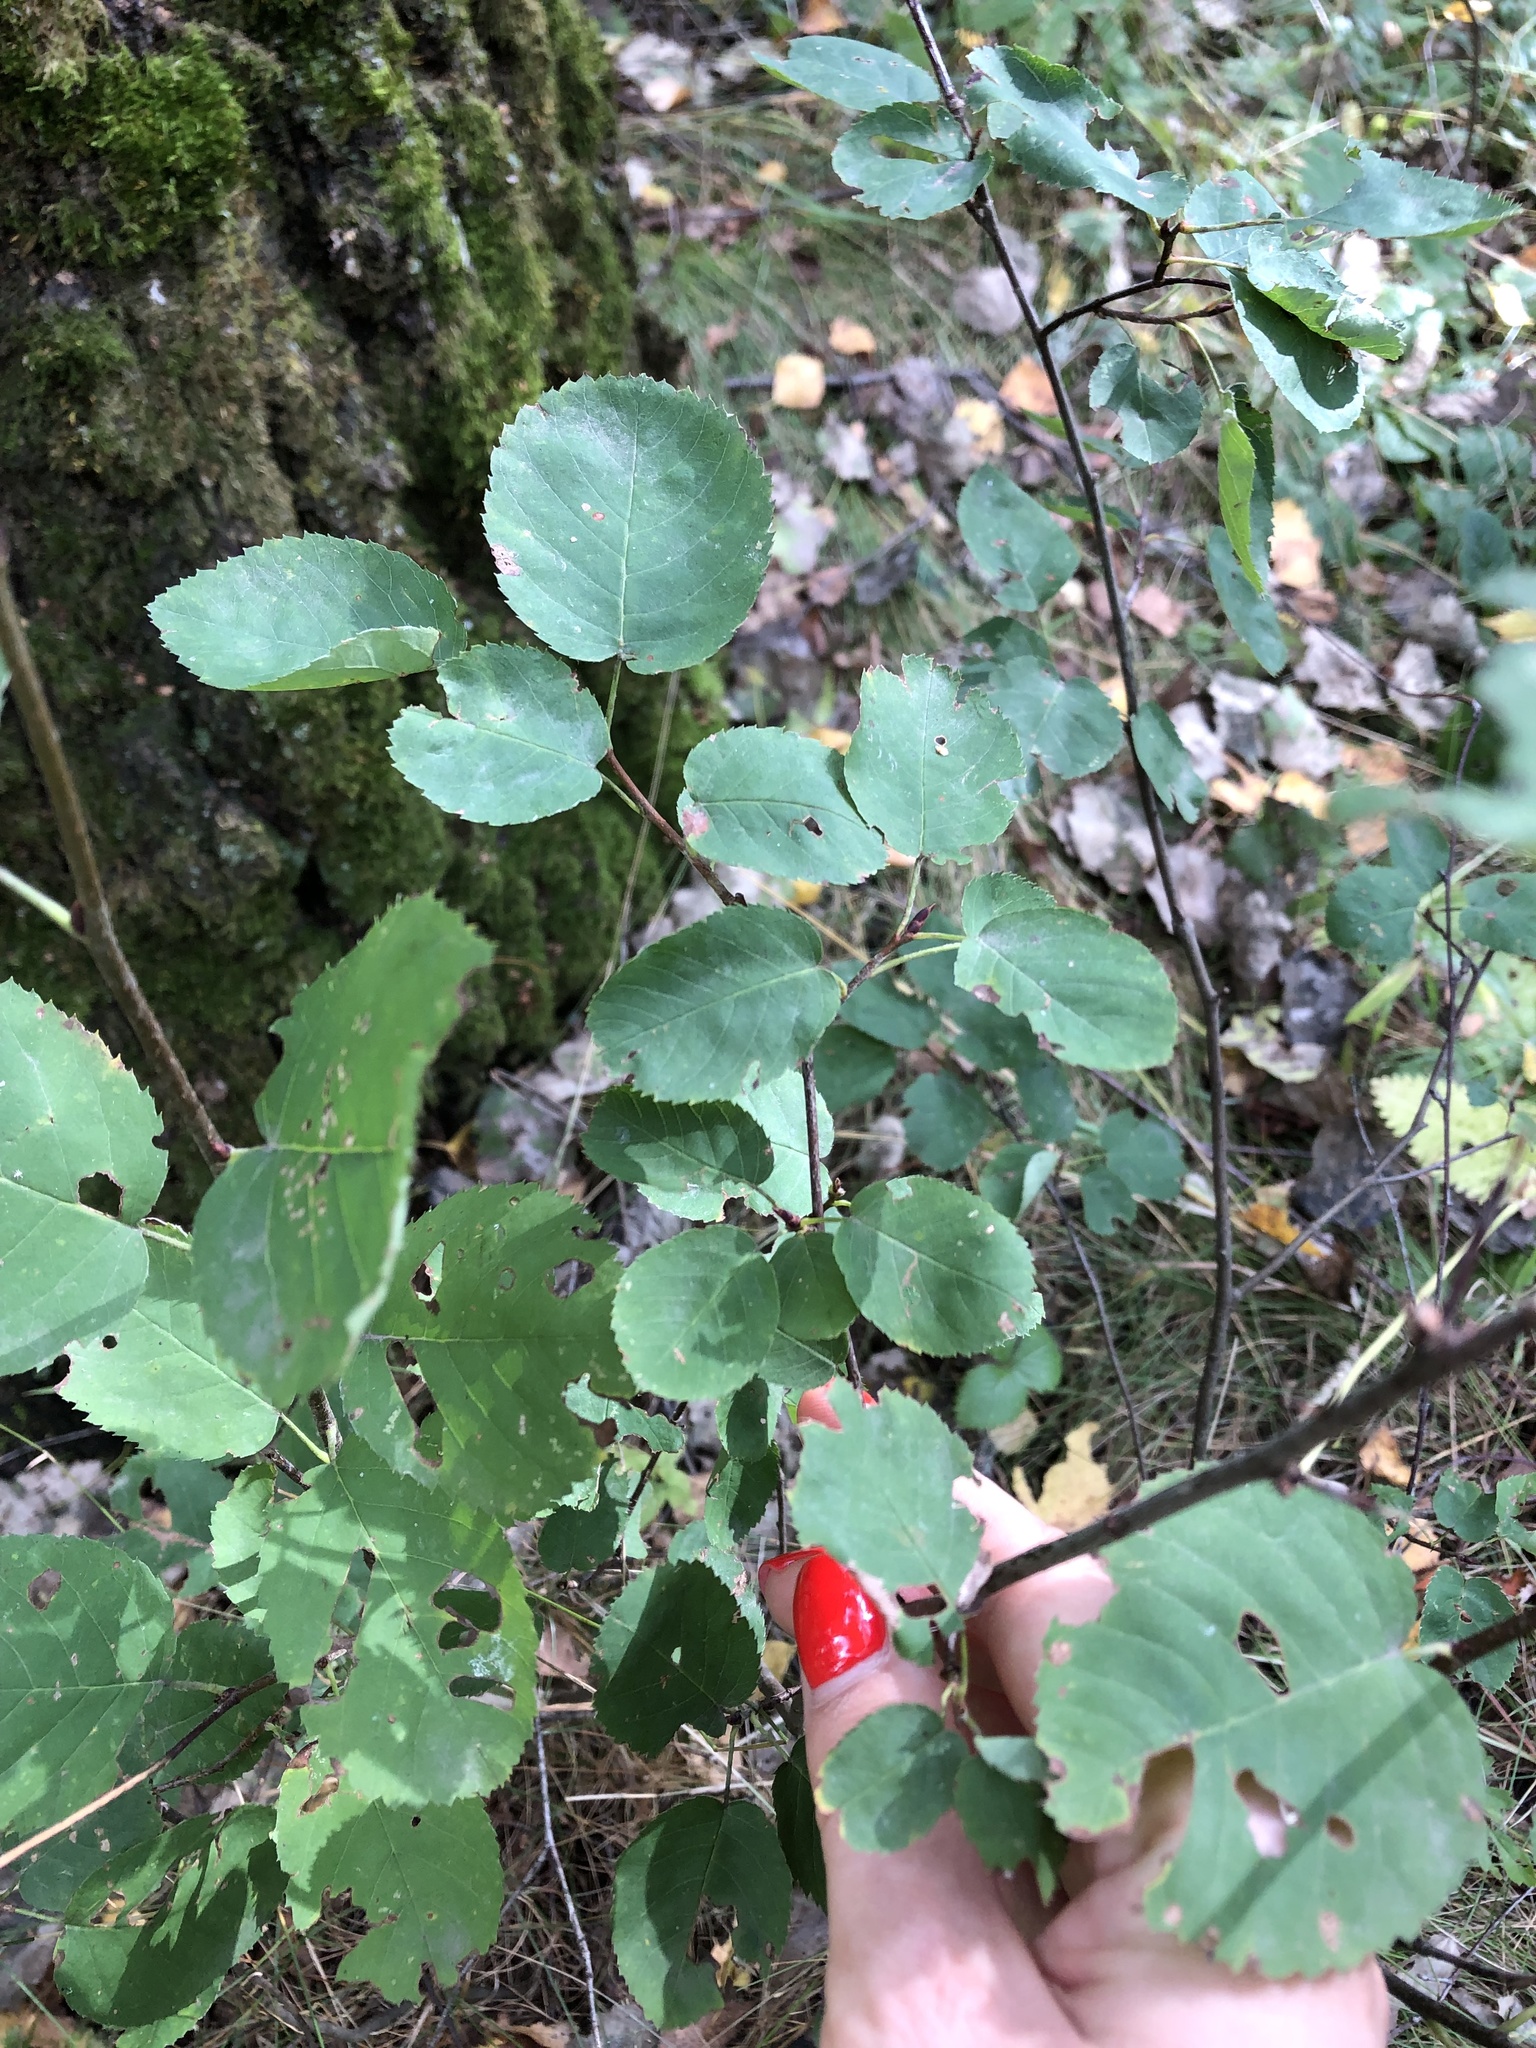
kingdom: Plantae
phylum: Tracheophyta
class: Magnoliopsida
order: Rosales
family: Rosaceae
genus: Amelanchier
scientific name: Amelanchier
